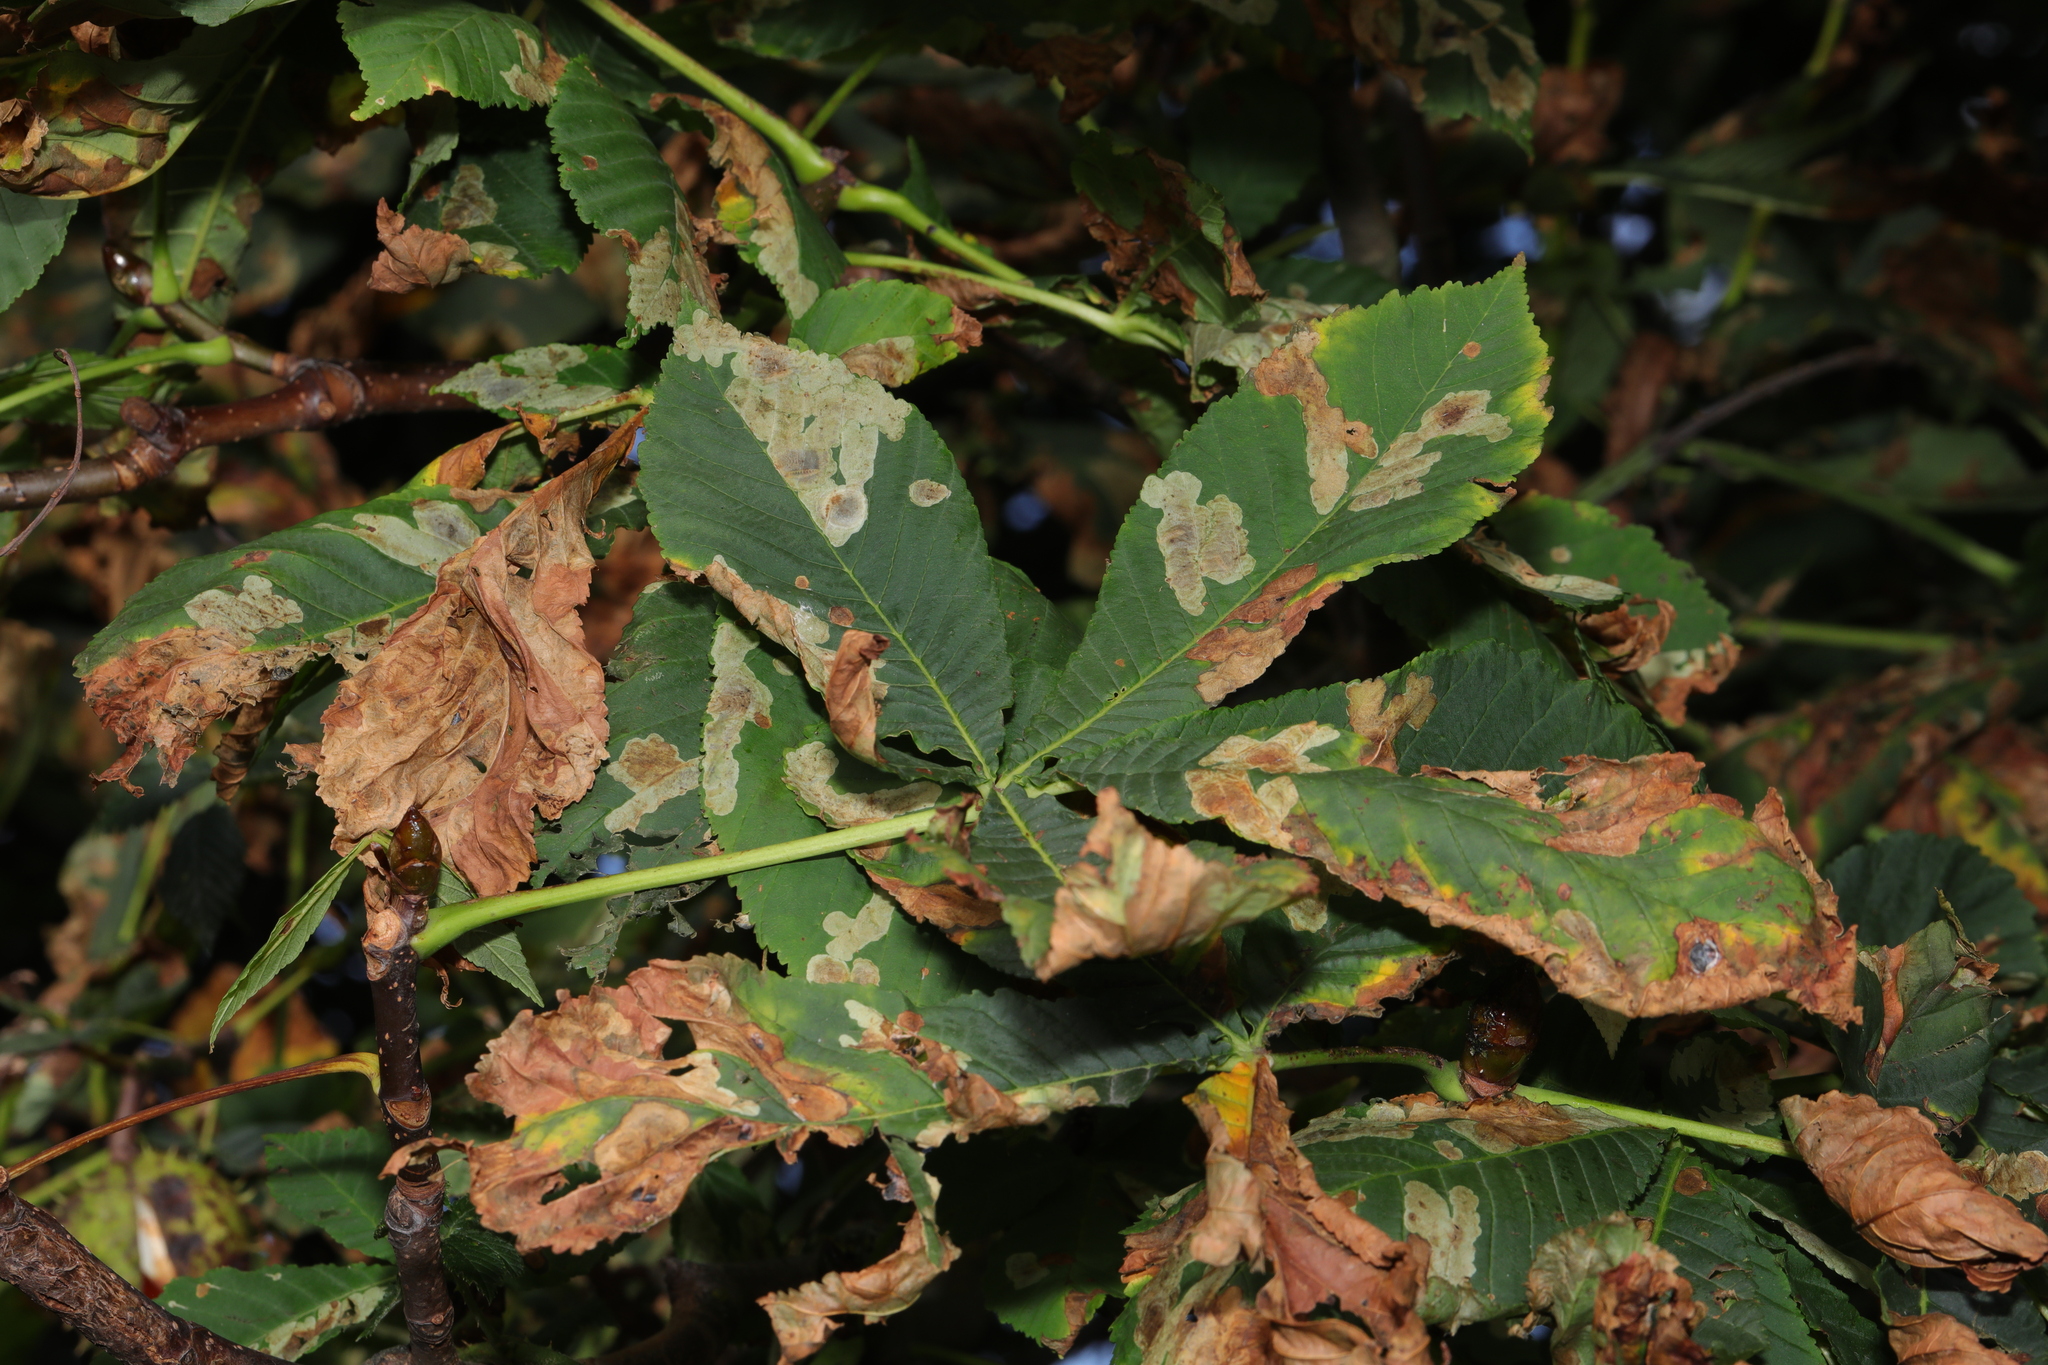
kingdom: Plantae
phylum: Tracheophyta
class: Magnoliopsida
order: Sapindales
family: Sapindaceae
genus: Aesculus
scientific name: Aesculus hippocastanum
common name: Horse-chestnut
